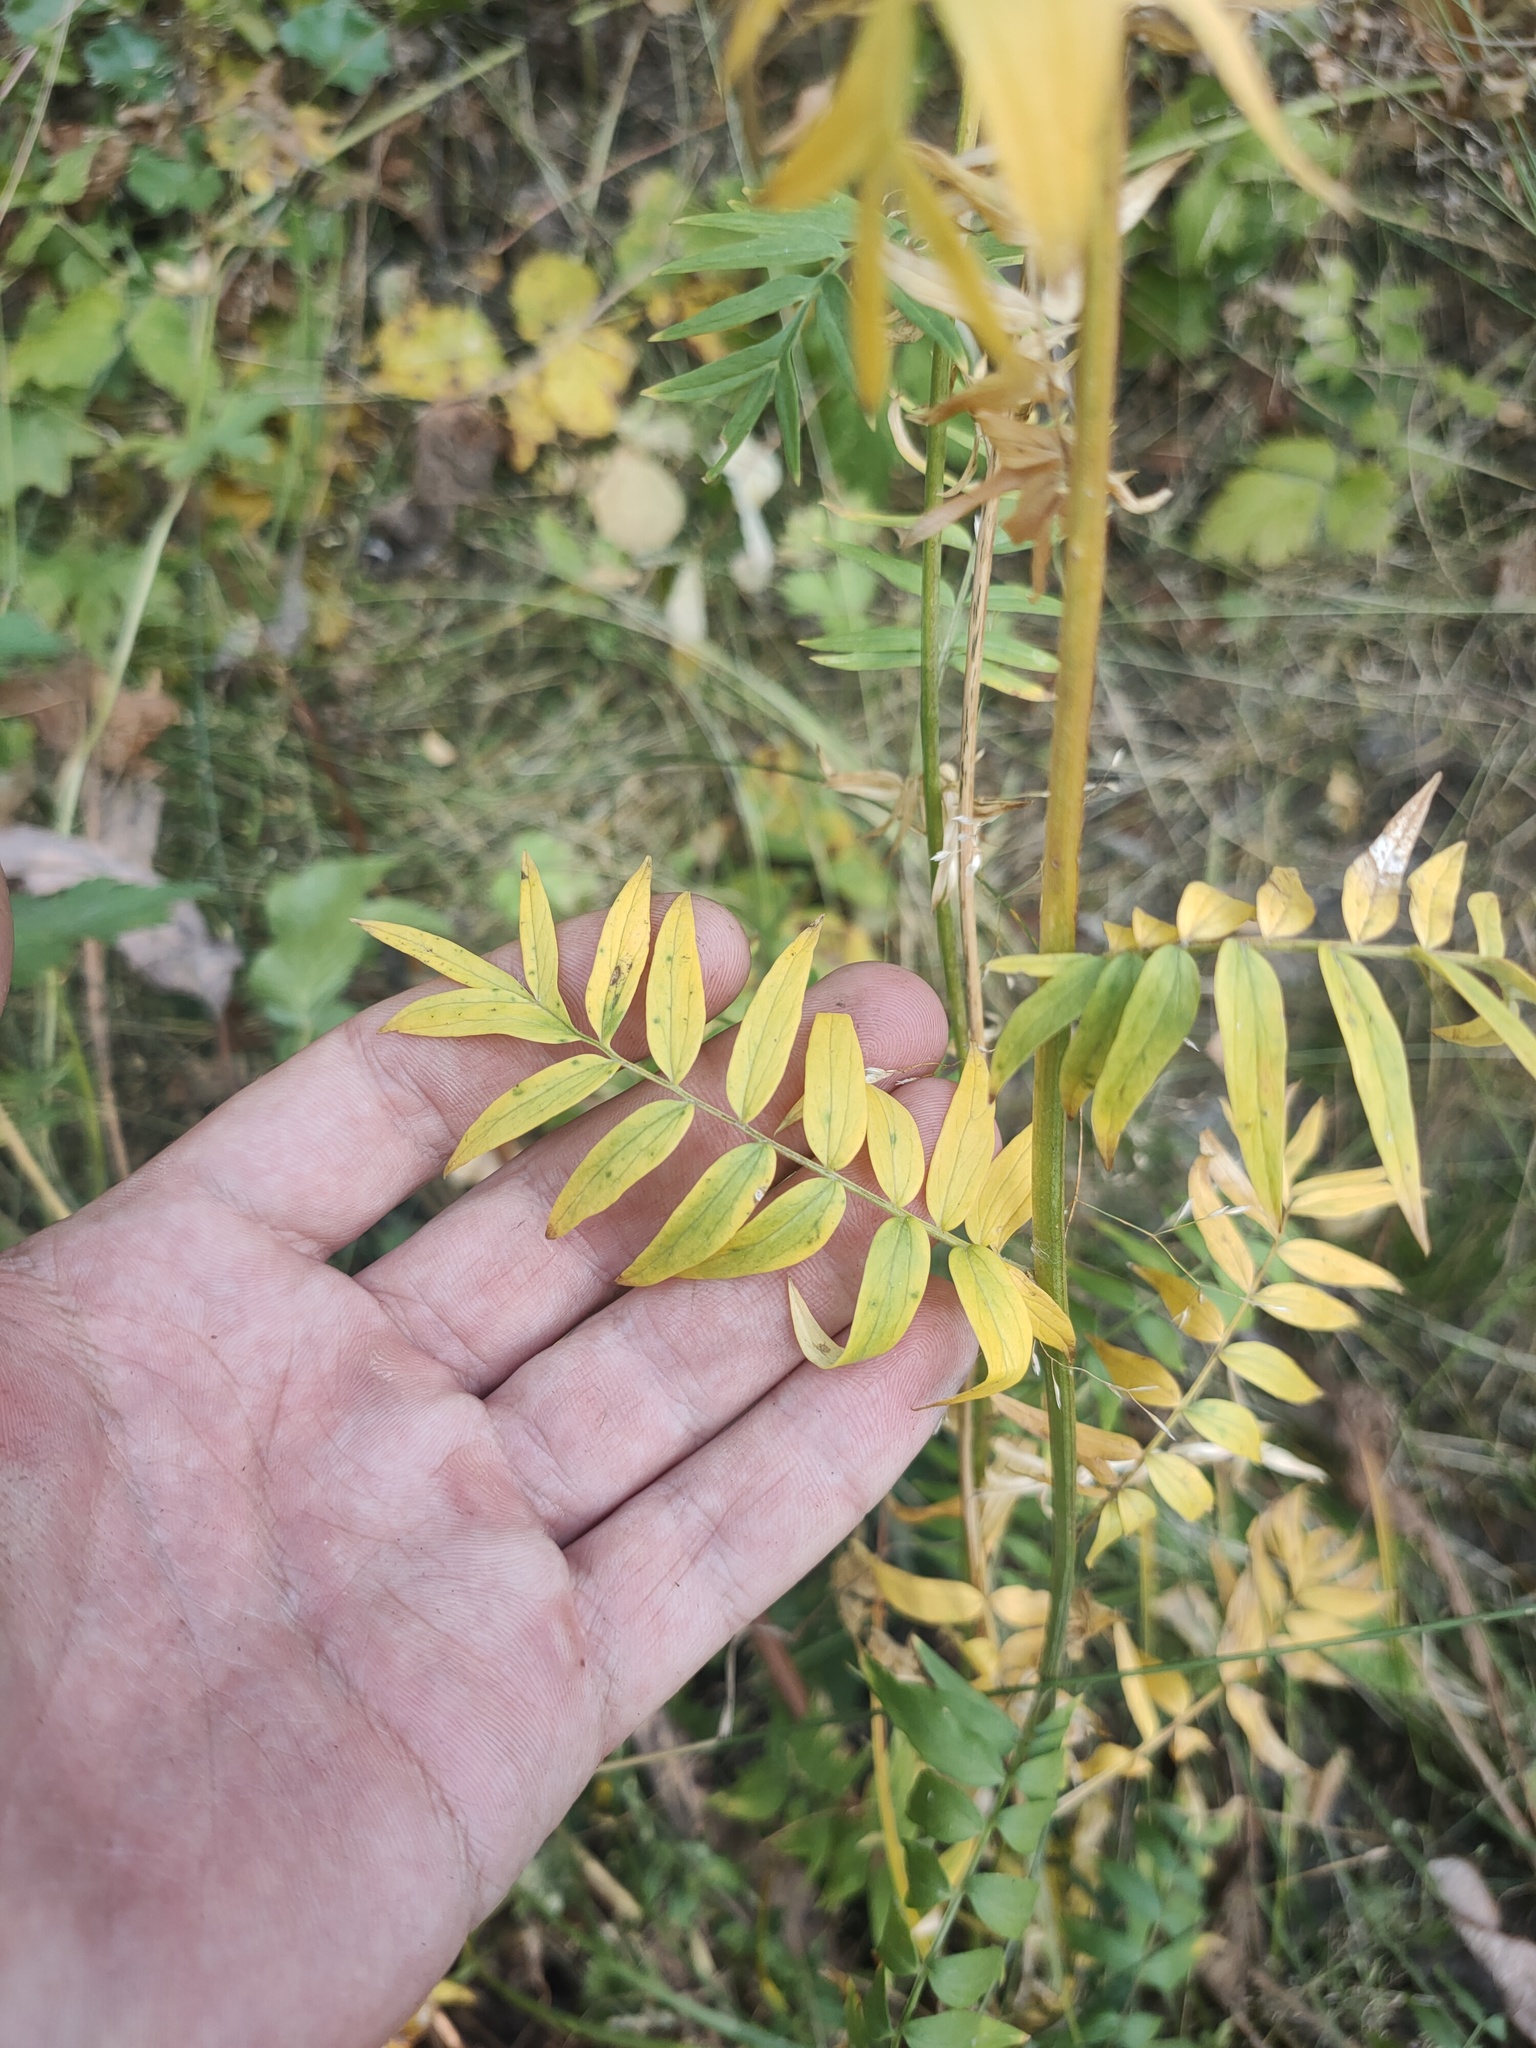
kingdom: Plantae
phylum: Tracheophyta
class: Magnoliopsida
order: Ericales
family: Polemoniaceae
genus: Polemonium
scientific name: Polemonium caeruleum
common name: Jacob's-ladder
